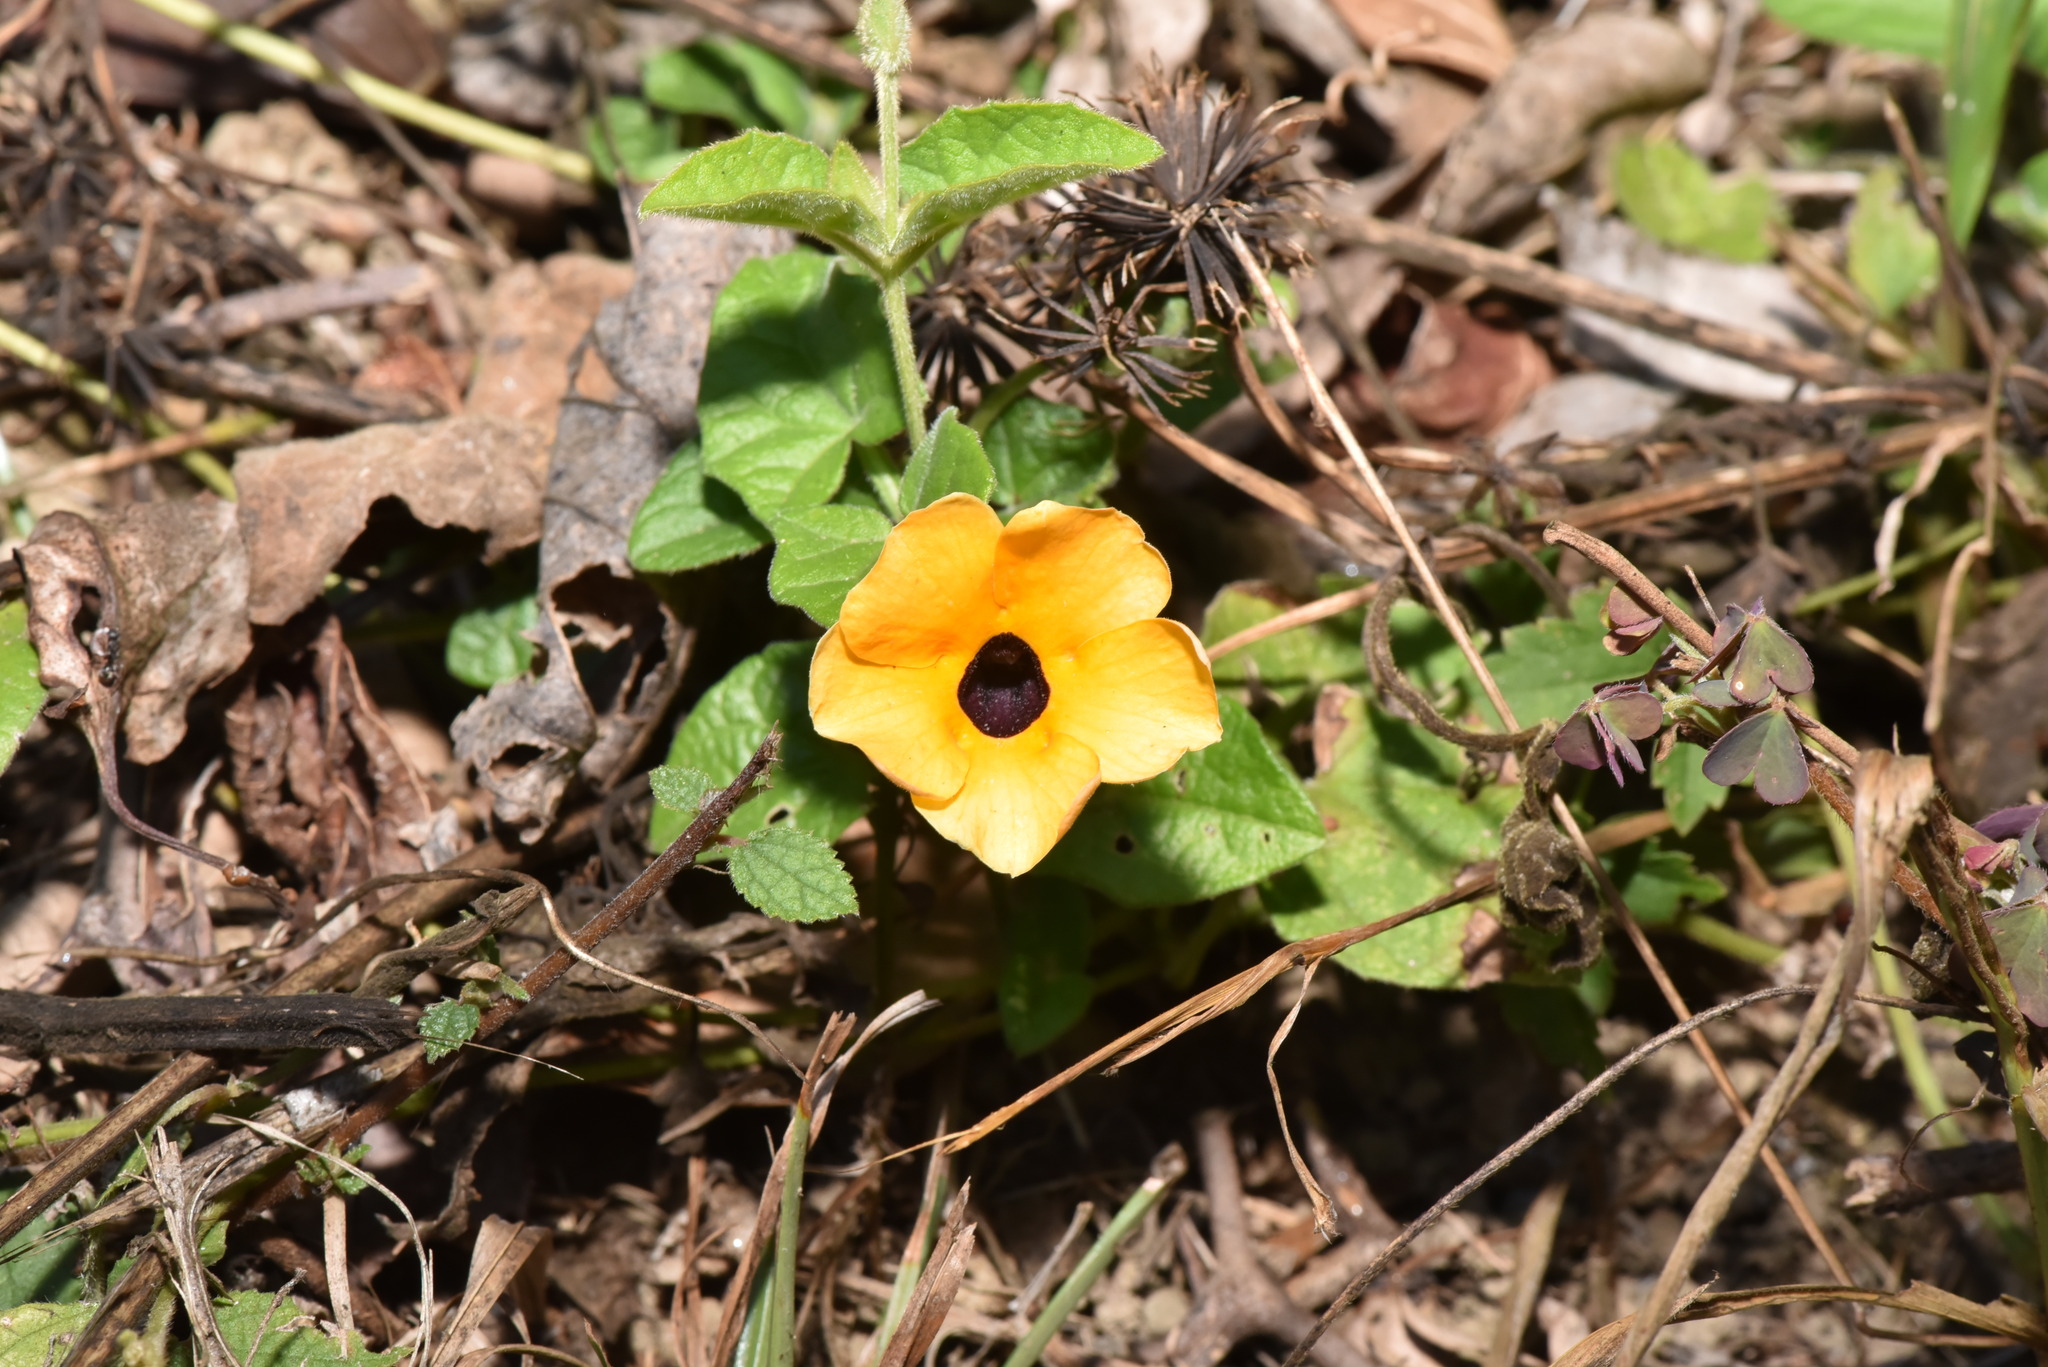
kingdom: Plantae
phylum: Tracheophyta
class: Magnoliopsida
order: Lamiales
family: Acanthaceae
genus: Thunbergia
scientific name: Thunbergia alata
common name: Blackeyed susan vine
